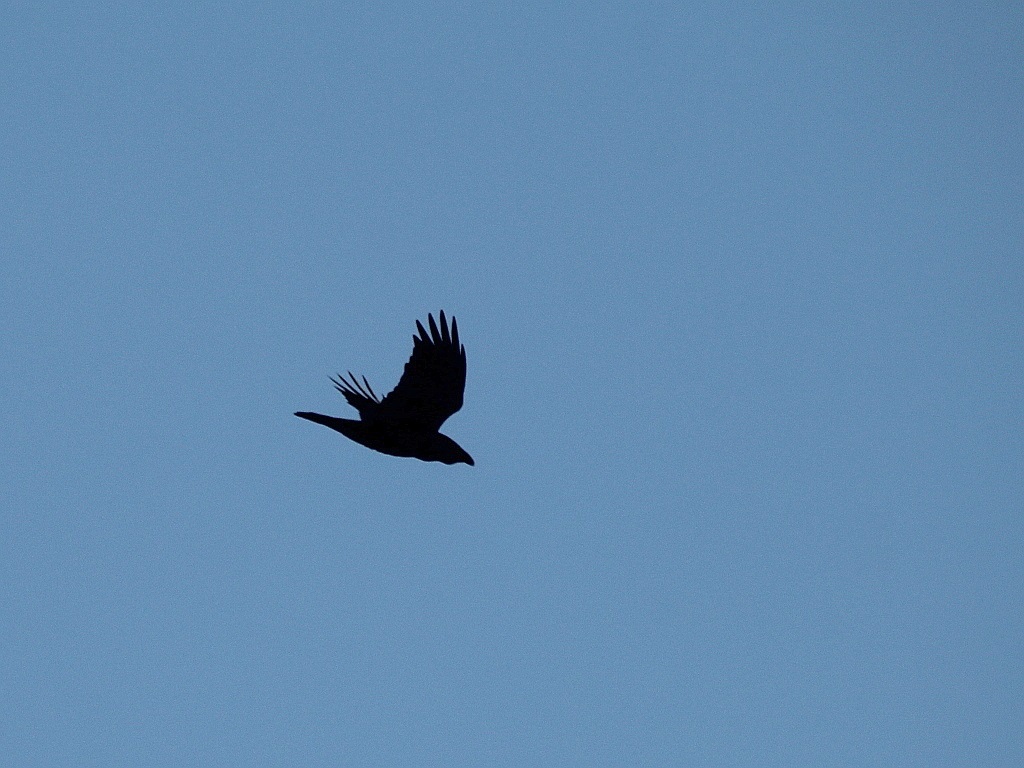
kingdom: Animalia
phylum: Chordata
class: Aves
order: Passeriformes
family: Corvidae
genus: Corvus
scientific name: Corvus corax
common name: Common raven
